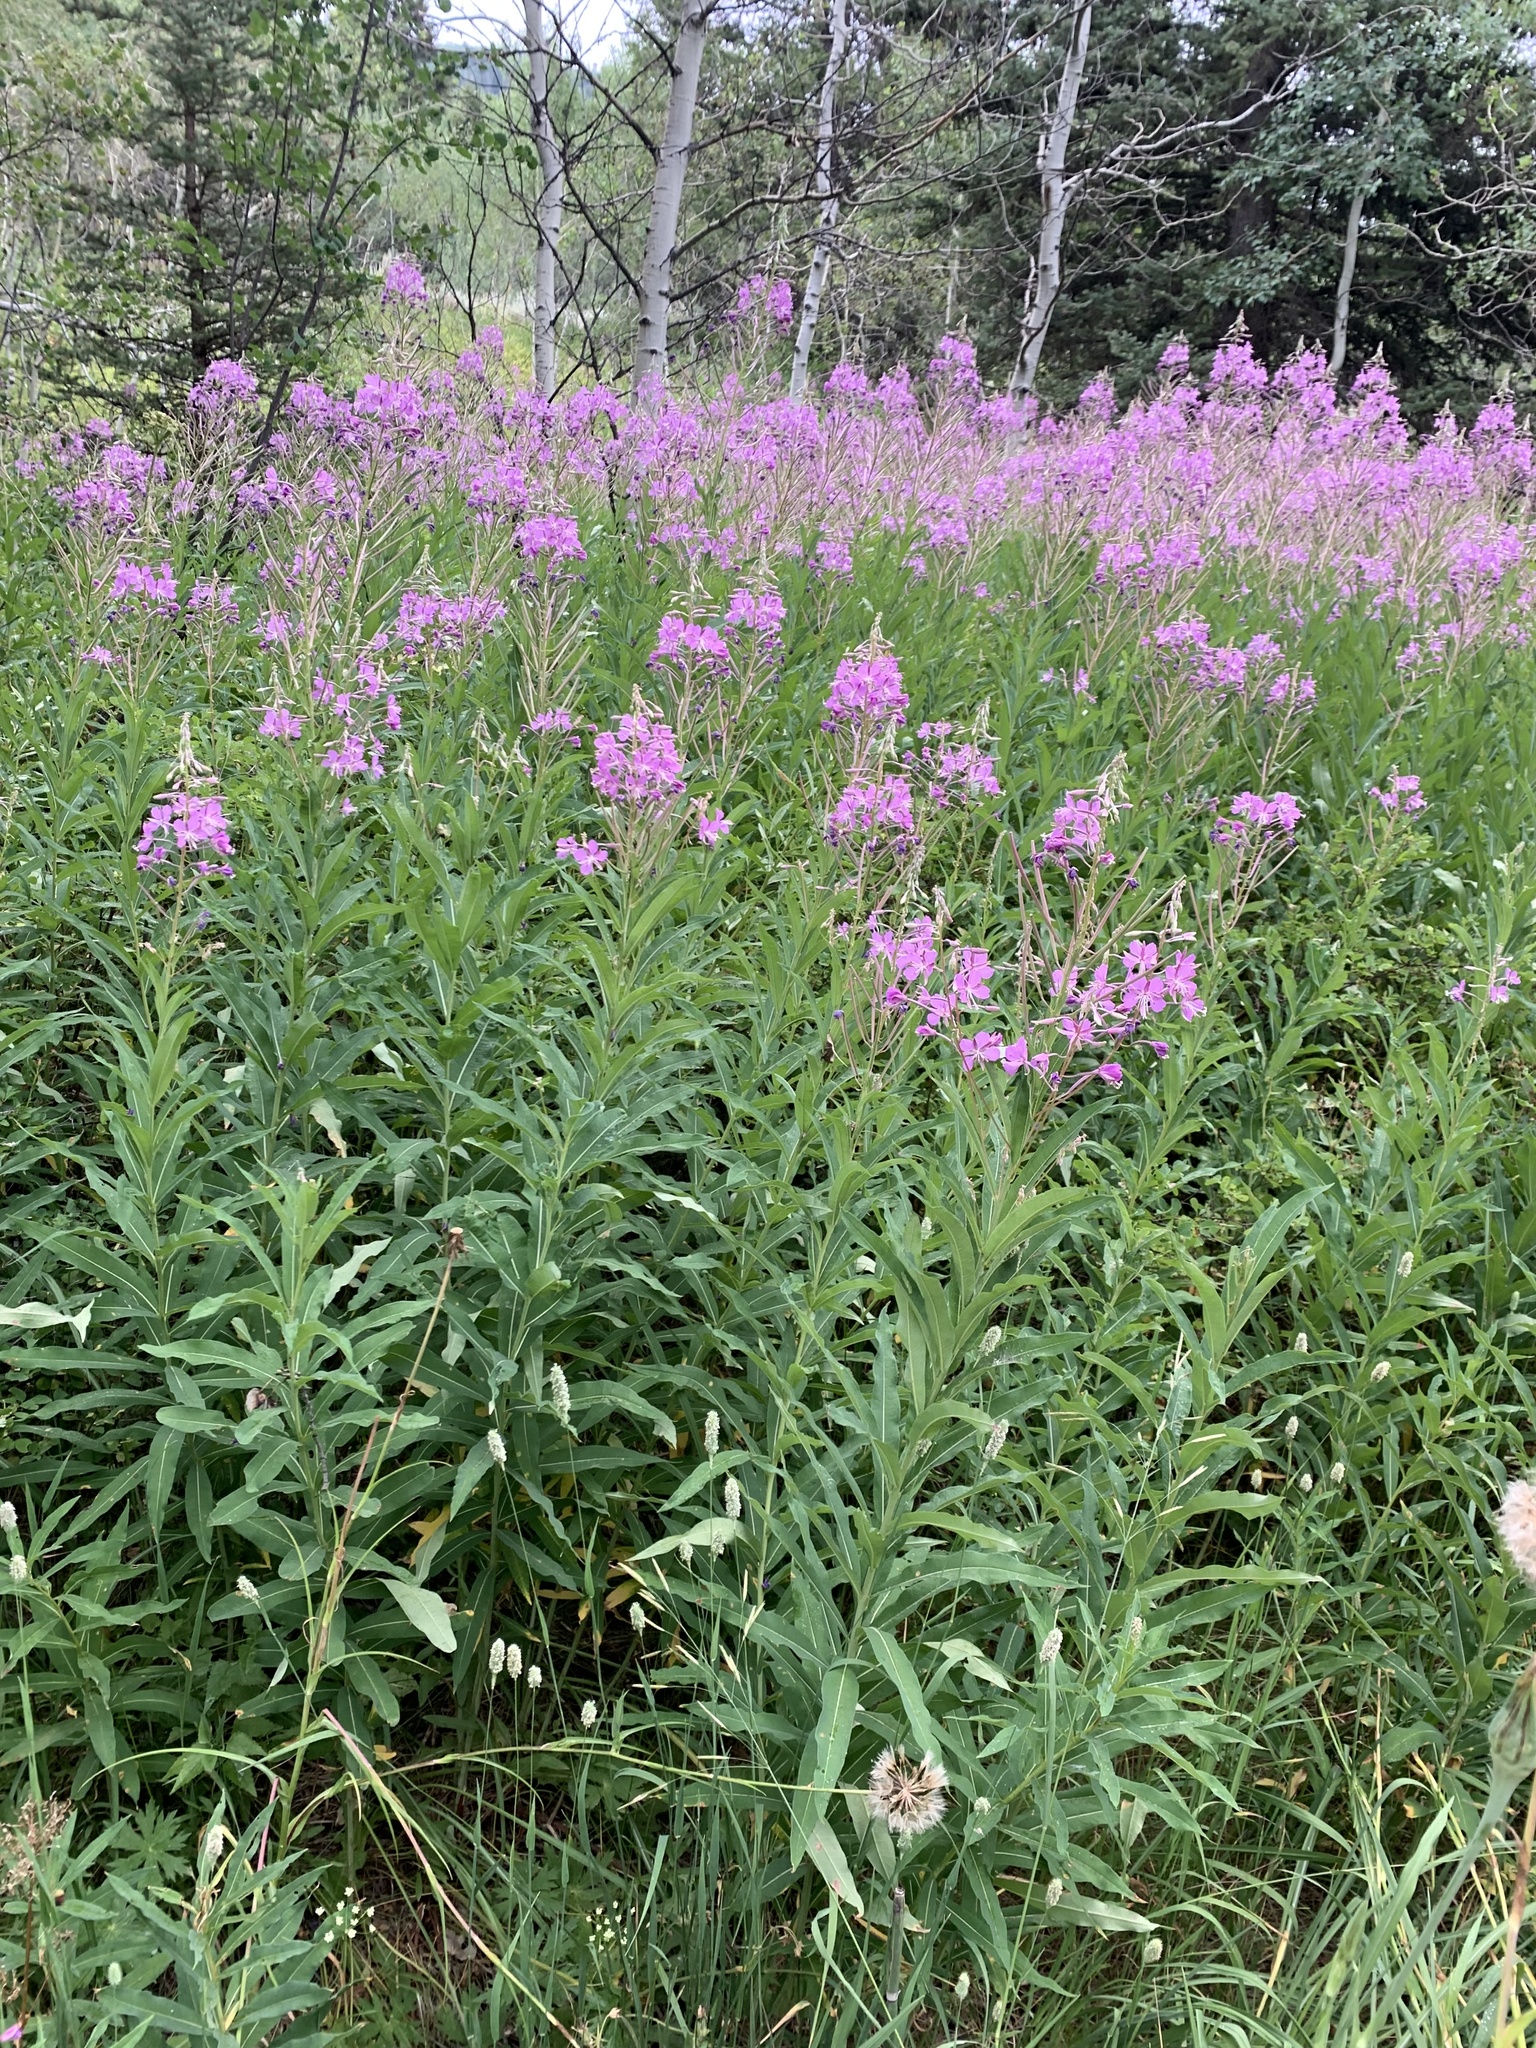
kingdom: Plantae
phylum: Tracheophyta
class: Magnoliopsida
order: Myrtales
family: Onagraceae
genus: Chamaenerion
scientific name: Chamaenerion angustifolium
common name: Fireweed
